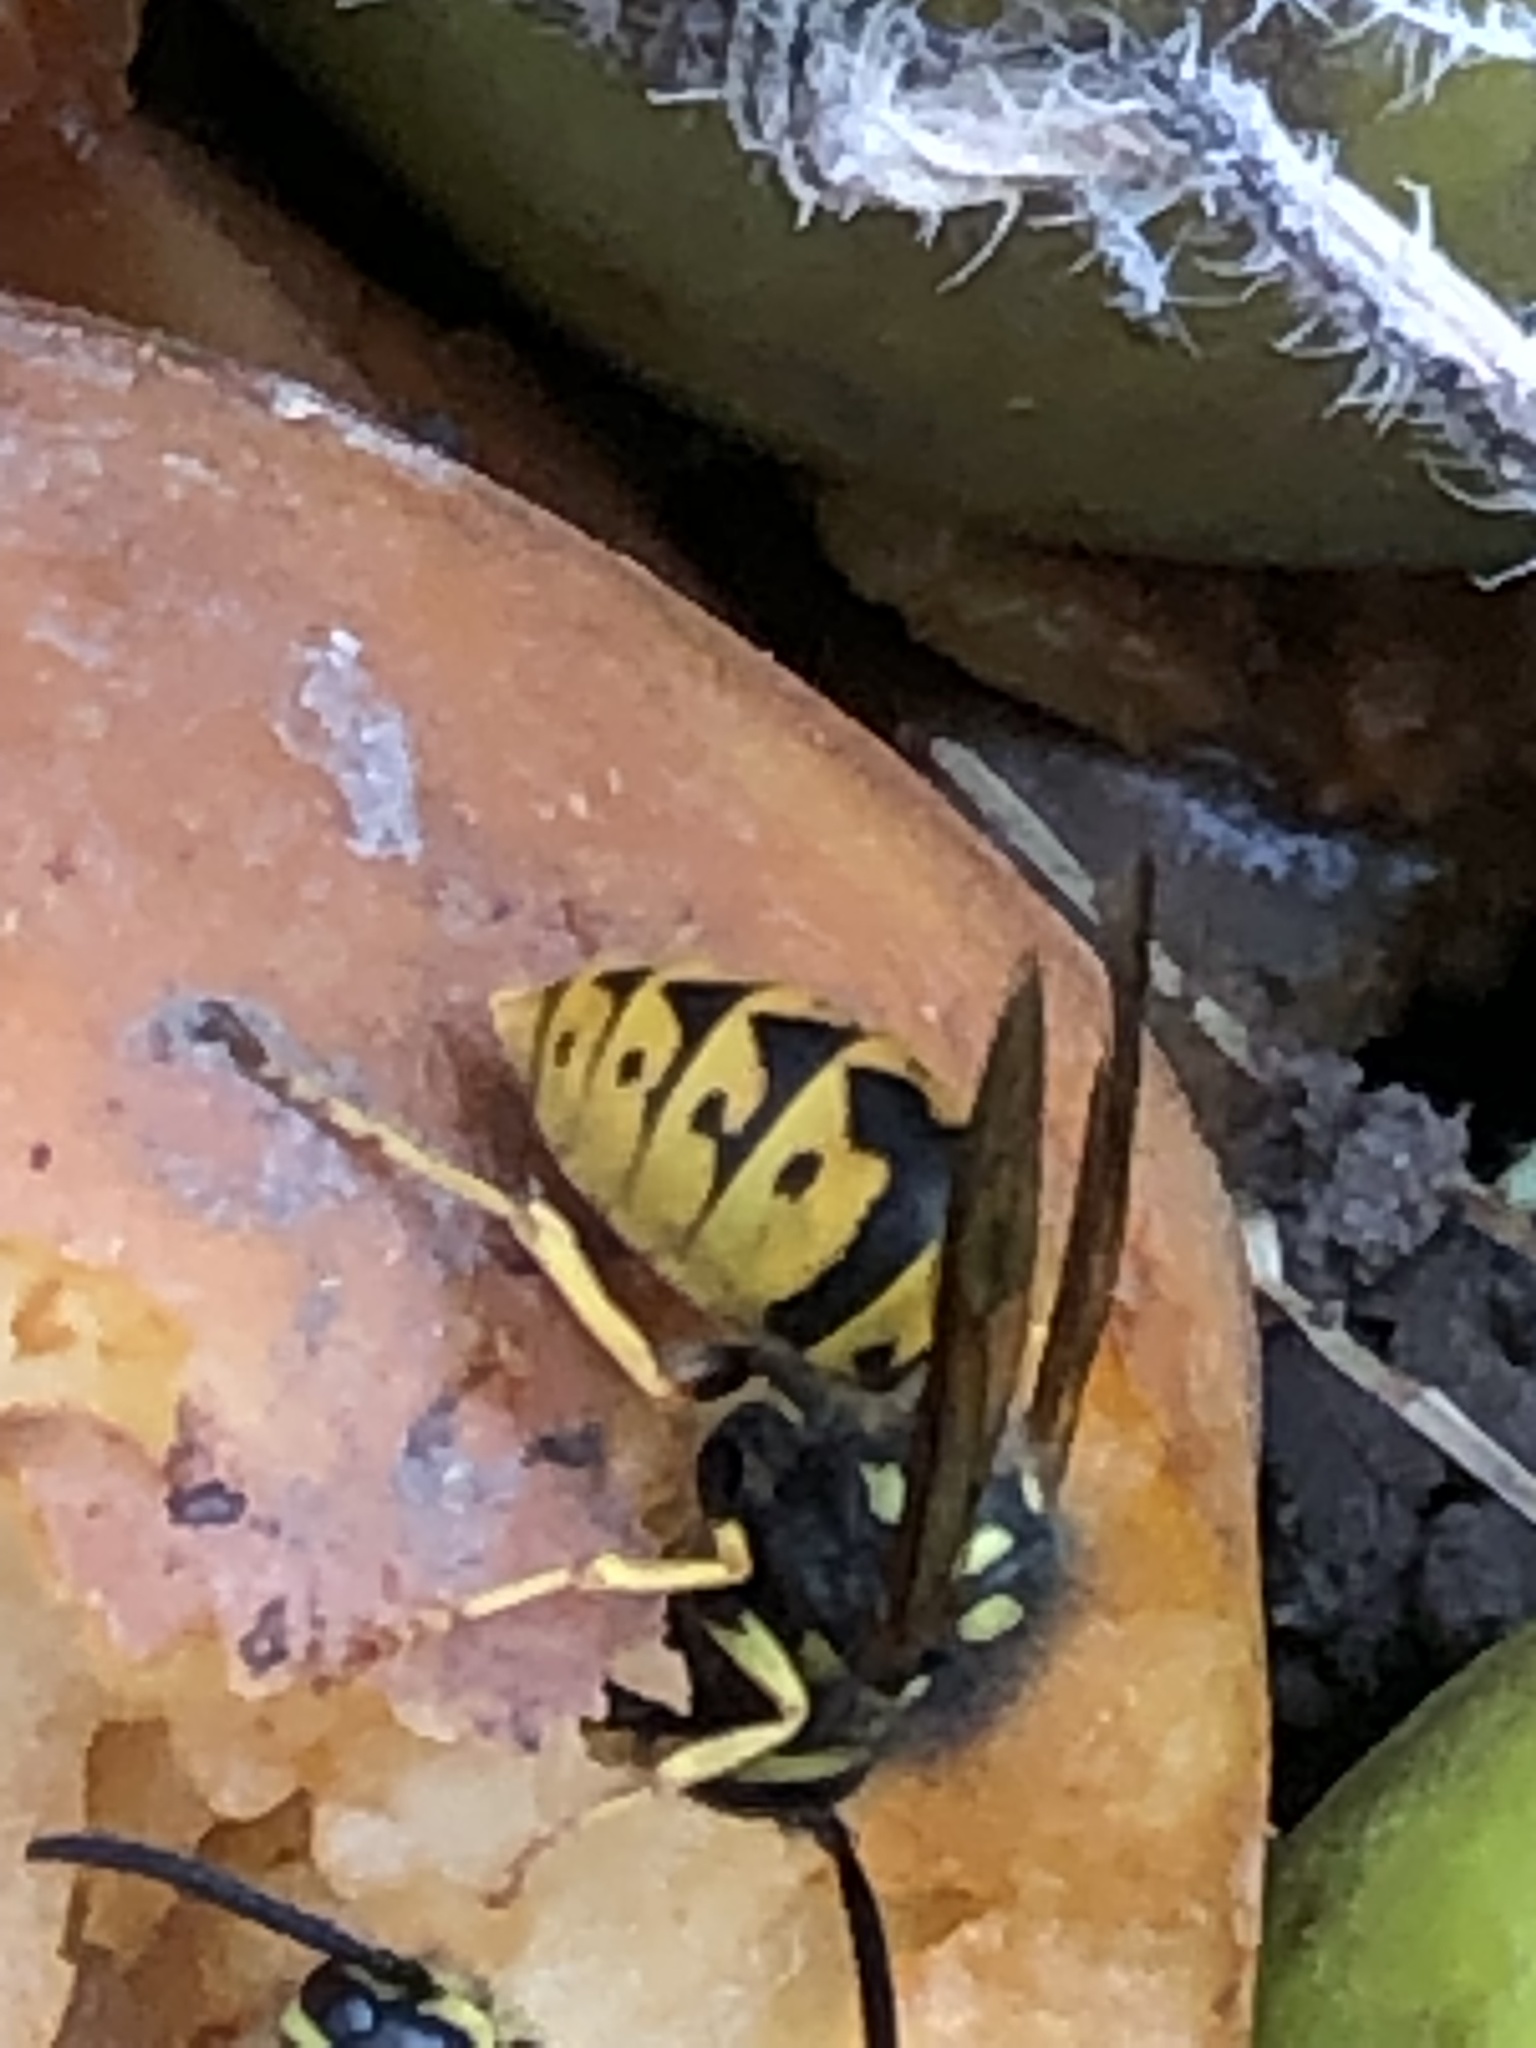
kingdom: Animalia
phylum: Arthropoda
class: Insecta
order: Hymenoptera
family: Vespidae
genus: Vespula
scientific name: Vespula germanica
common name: German wasp
